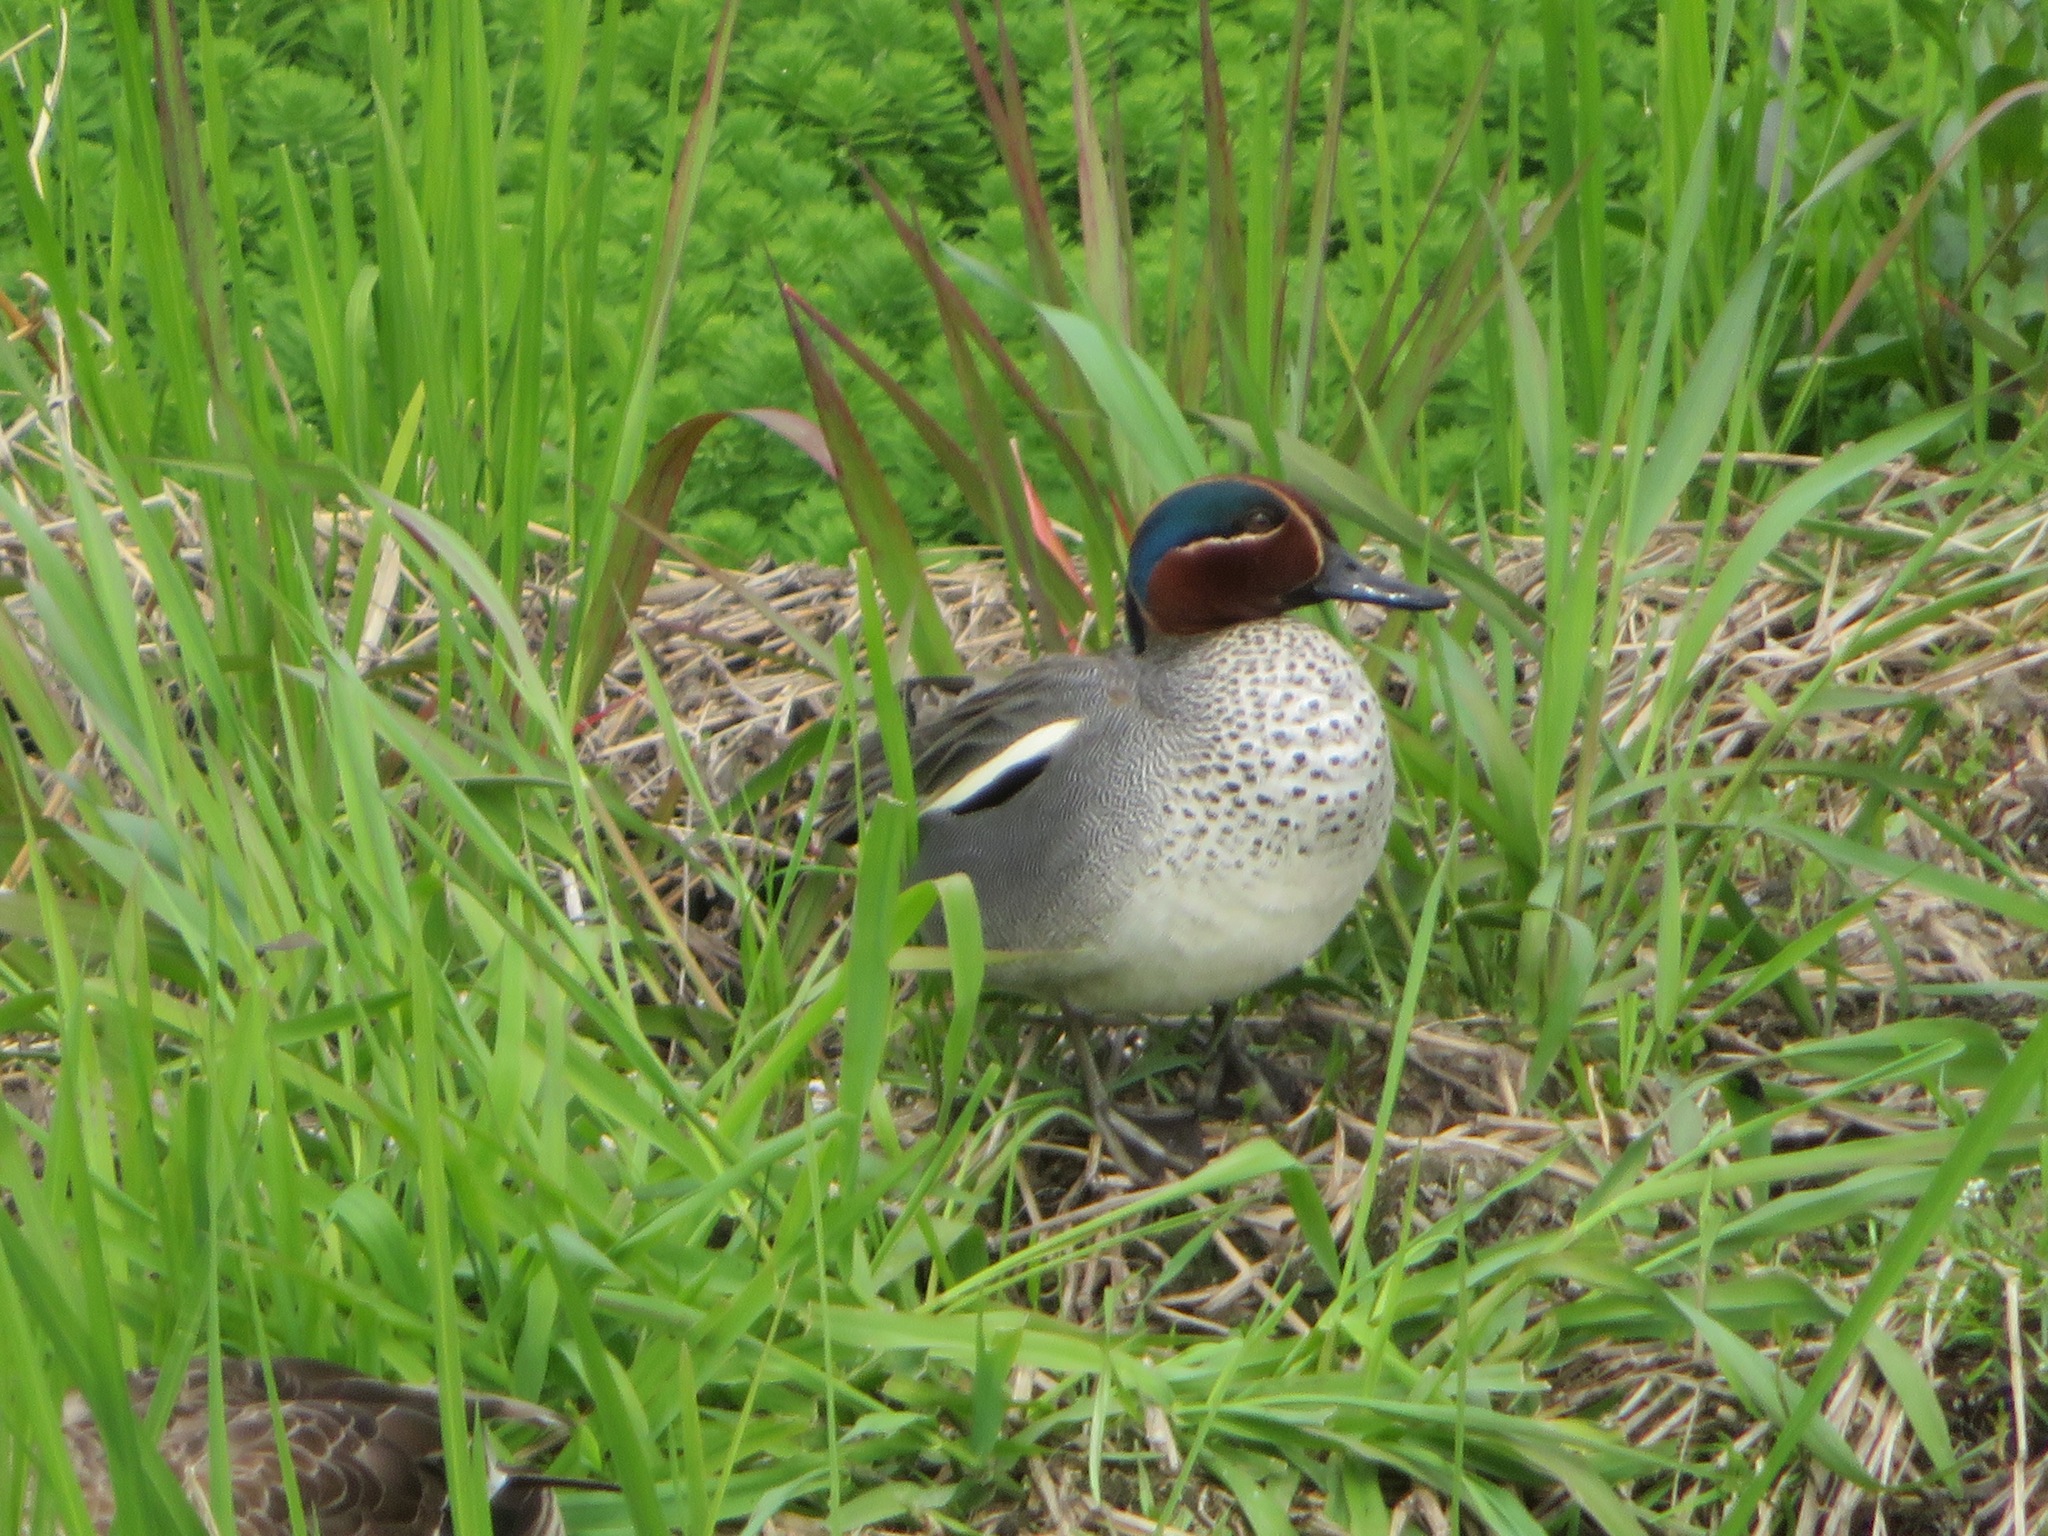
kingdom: Animalia
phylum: Chordata
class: Aves
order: Anseriformes
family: Anatidae
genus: Anas
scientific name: Anas crecca
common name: Eurasian teal
